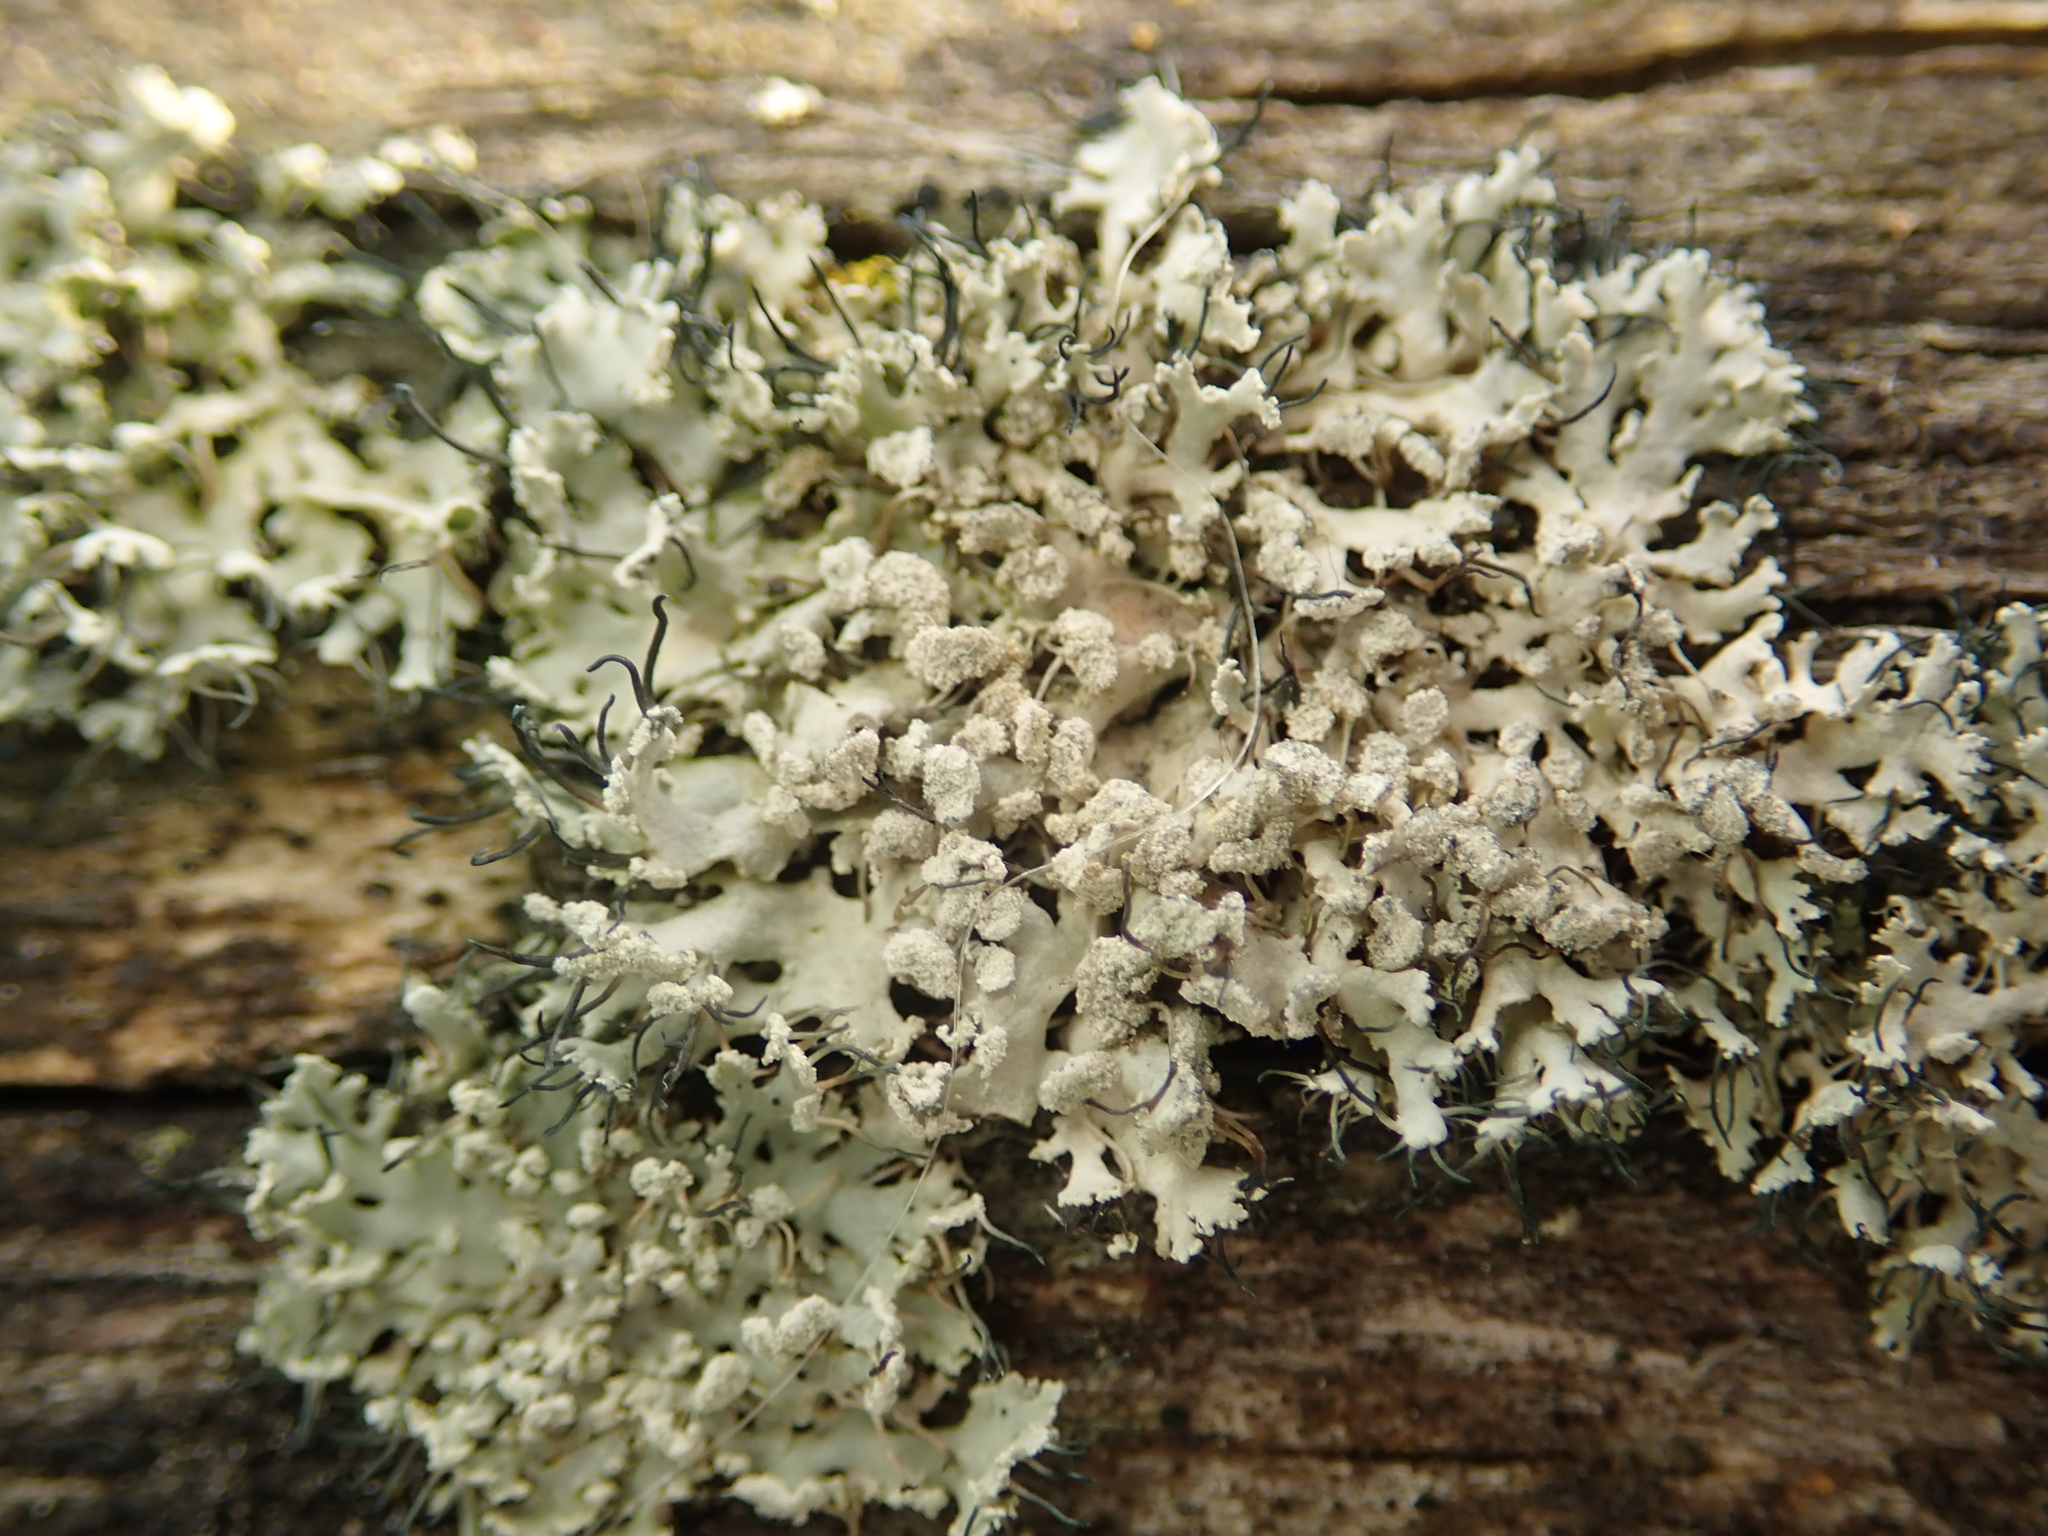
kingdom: Fungi
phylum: Ascomycota
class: Lecanoromycetes
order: Caliciales
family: Physciaceae
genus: Physcia
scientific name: Physcia tenella
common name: Fringed rosette lichen
